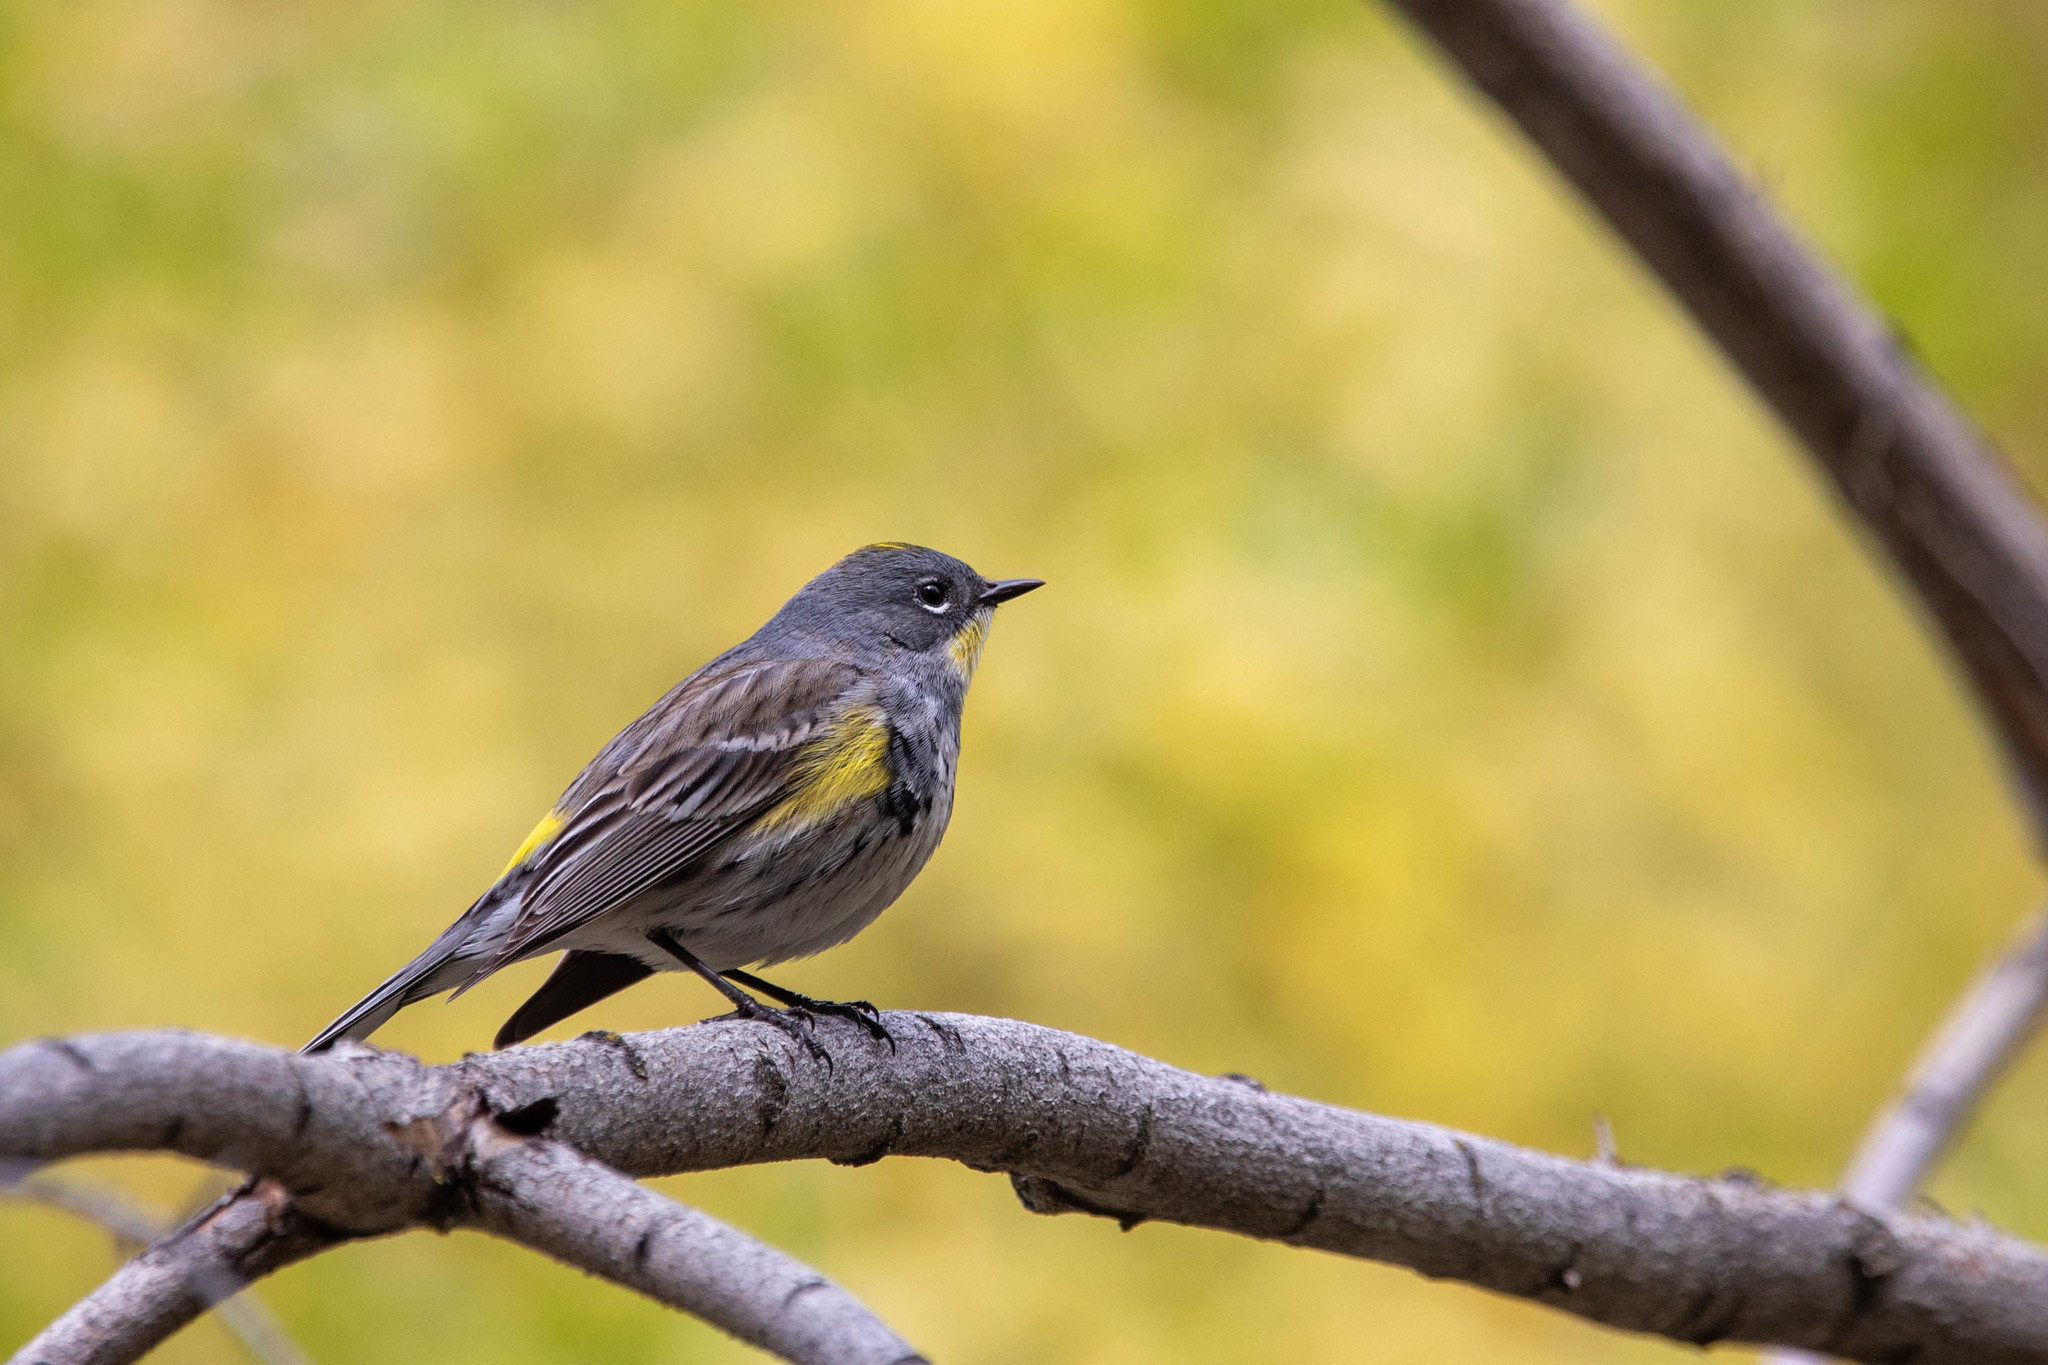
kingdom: Animalia
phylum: Chordata
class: Aves
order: Passeriformes
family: Parulidae
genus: Setophaga
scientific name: Setophaga
